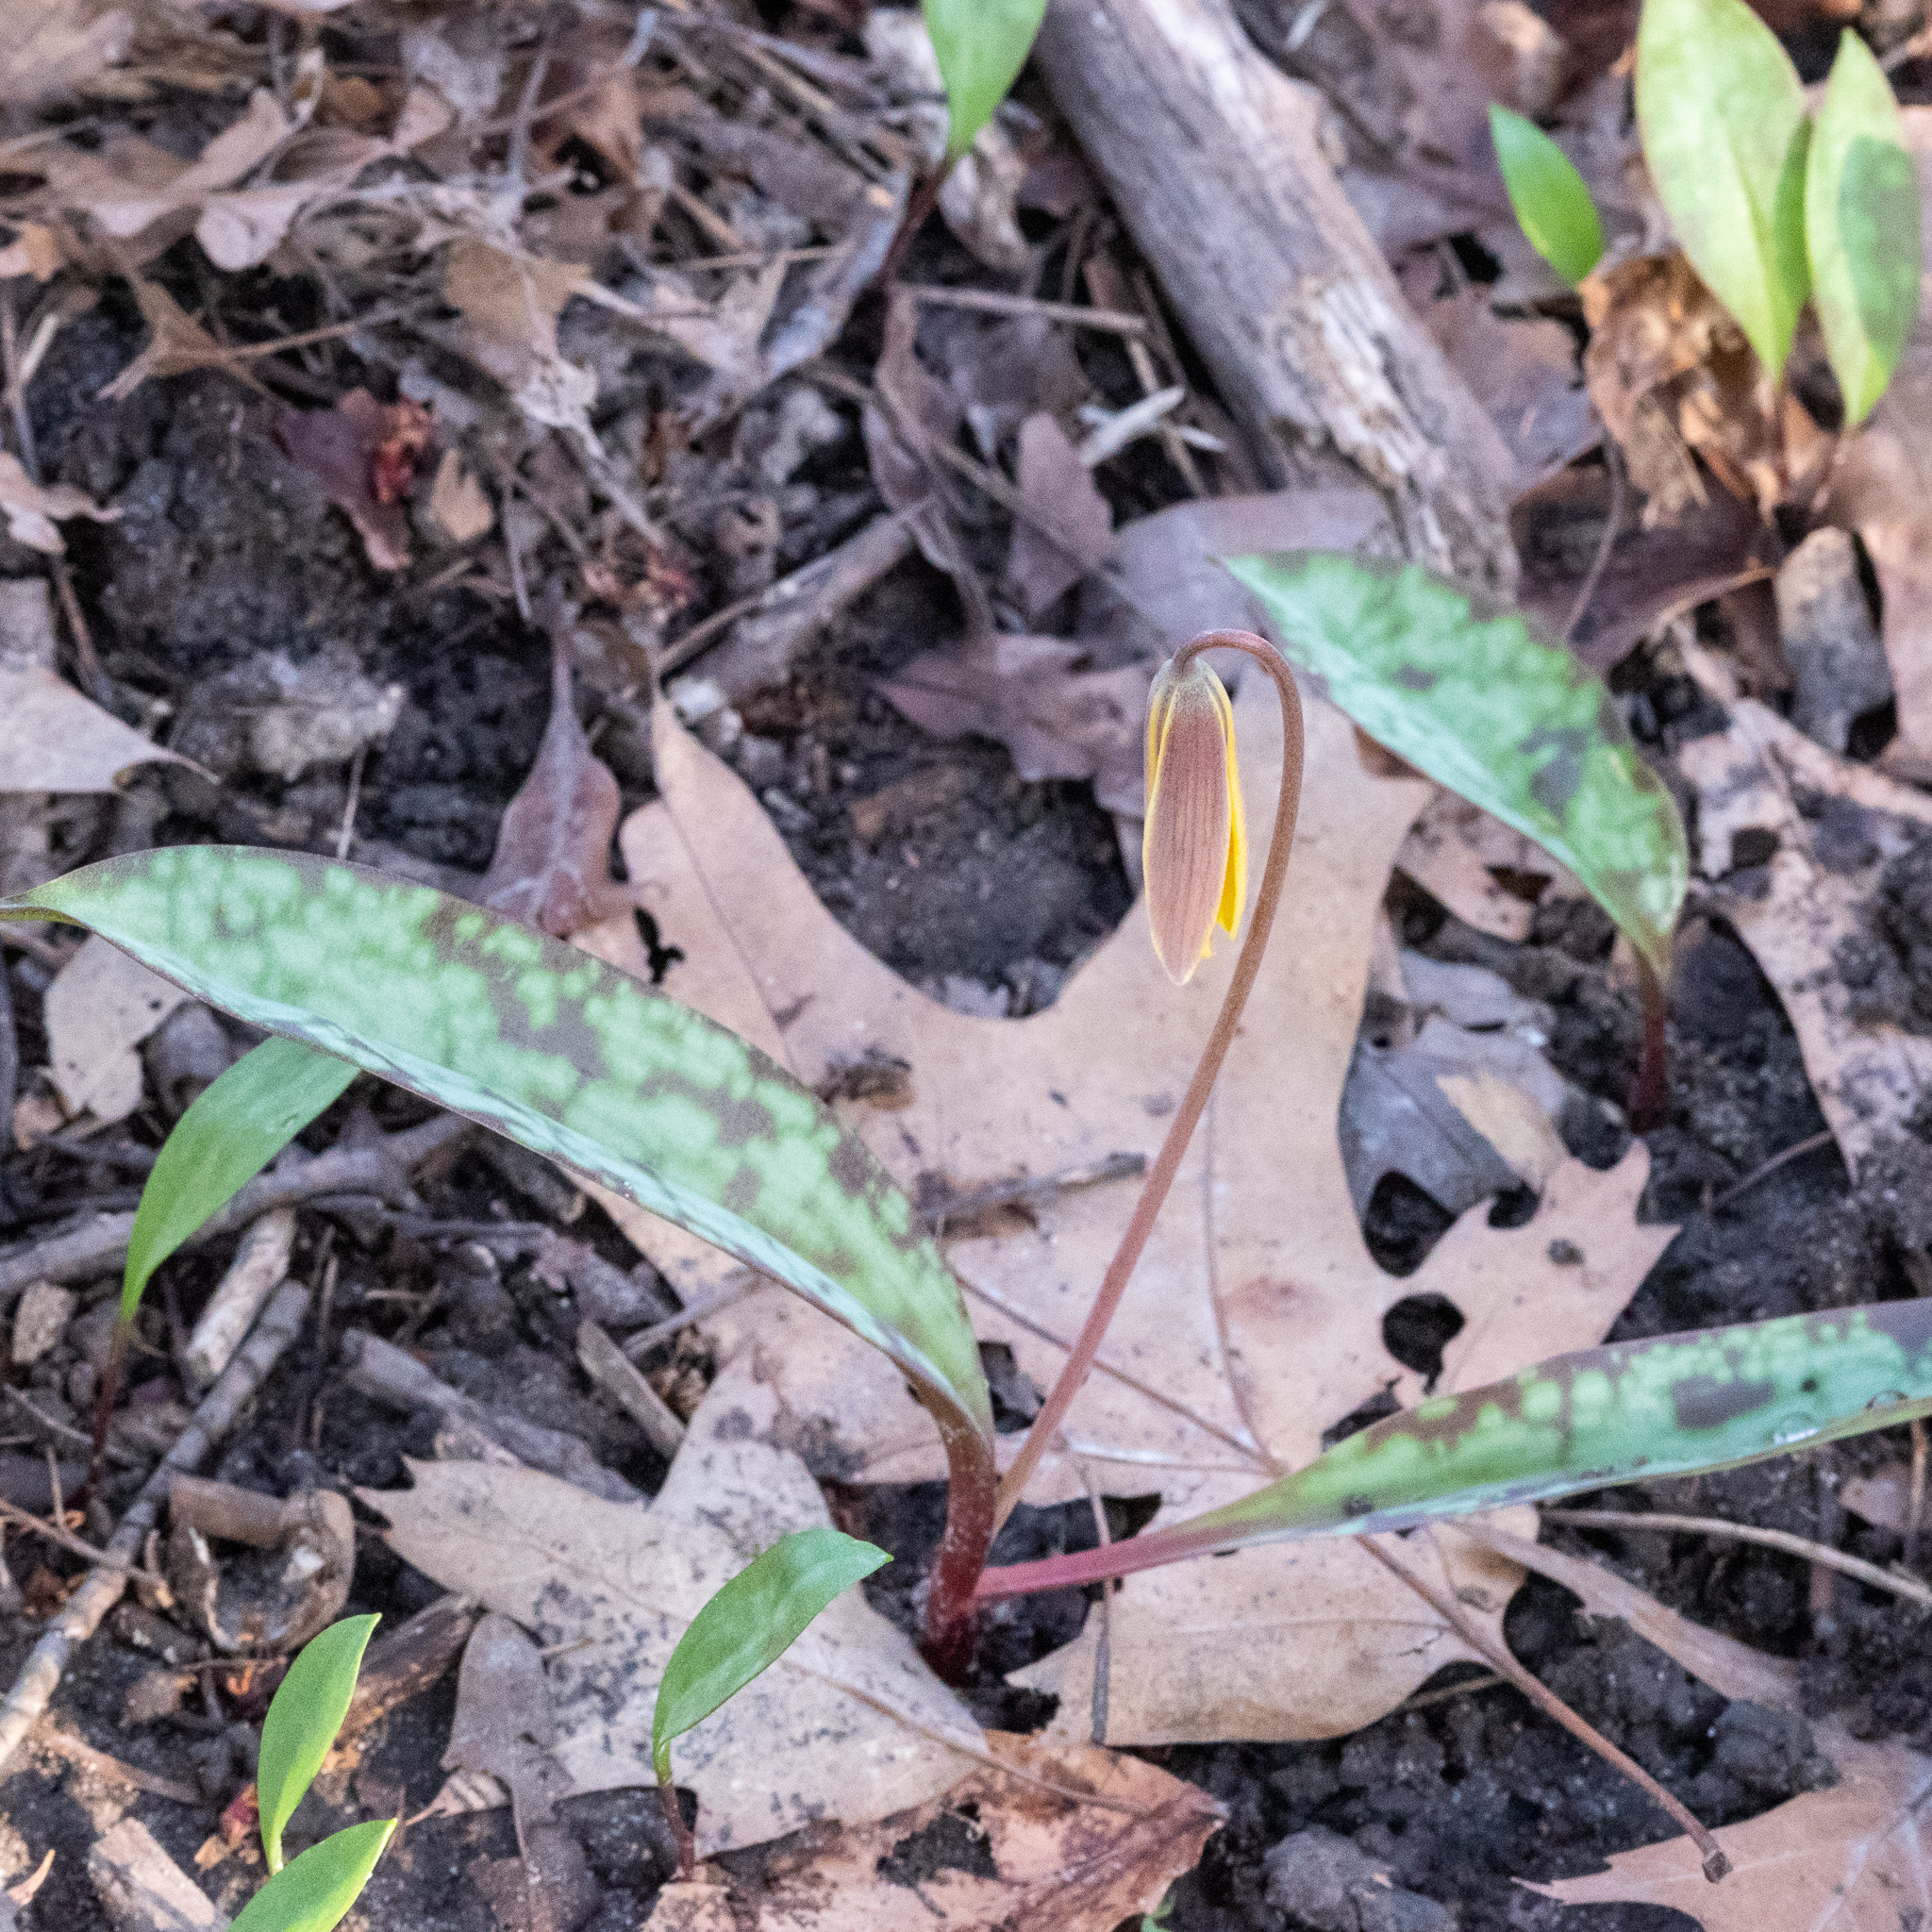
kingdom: Plantae
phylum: Tracheophyta
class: Liliopsida
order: Liliales
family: Liliaceae
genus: Erythronium
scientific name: Erythronium americanum
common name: Yellow adder's-tongue
